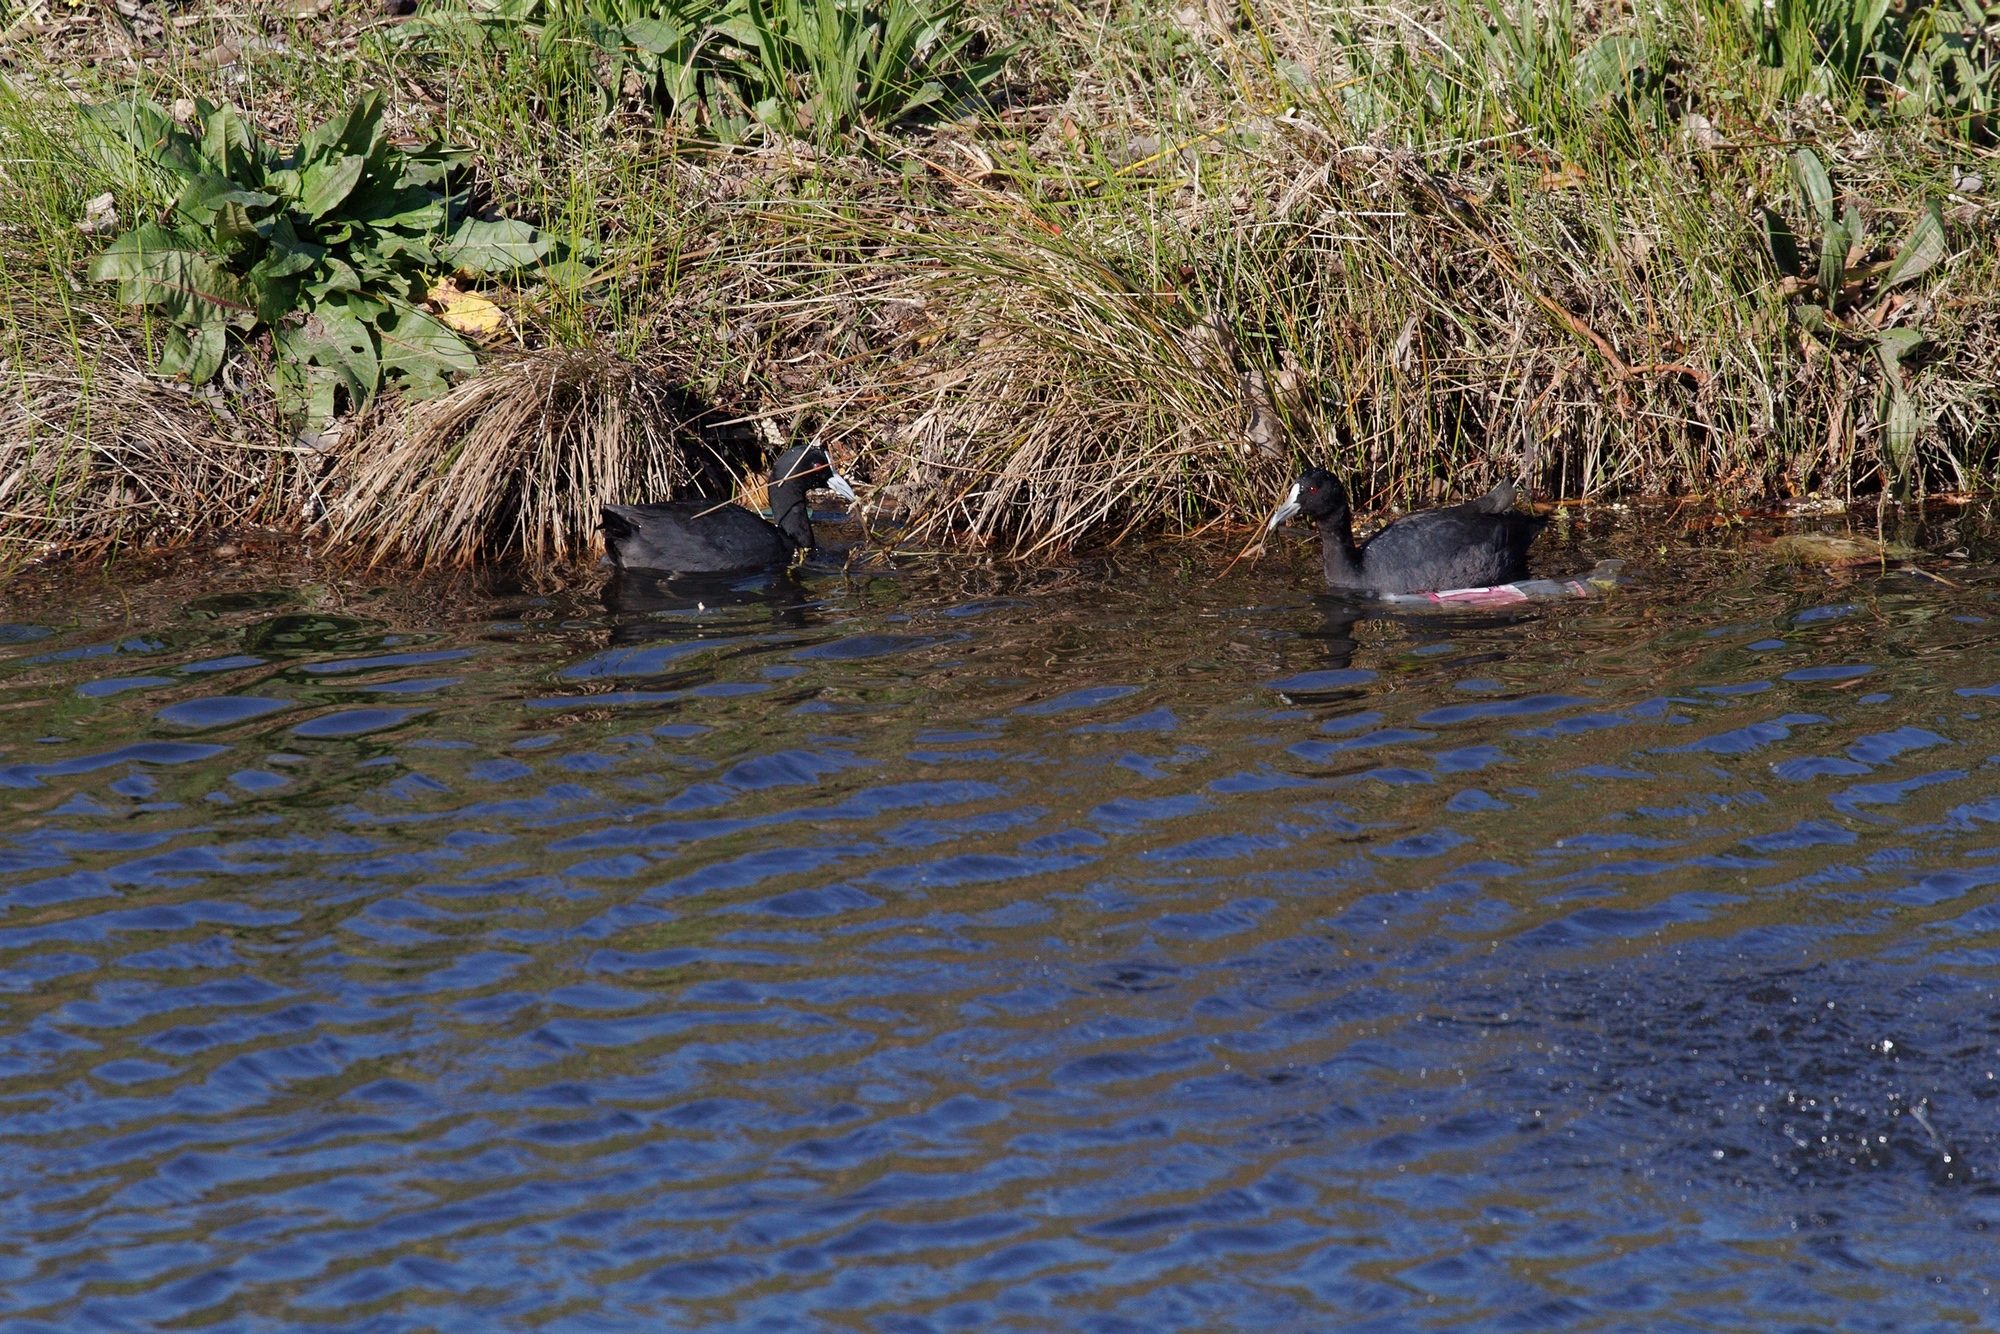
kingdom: Animalia
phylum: Chordata
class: Aves
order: Gruiformes
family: Rallidae
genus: Fulica
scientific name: Fulica atra
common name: Eurasian coot
